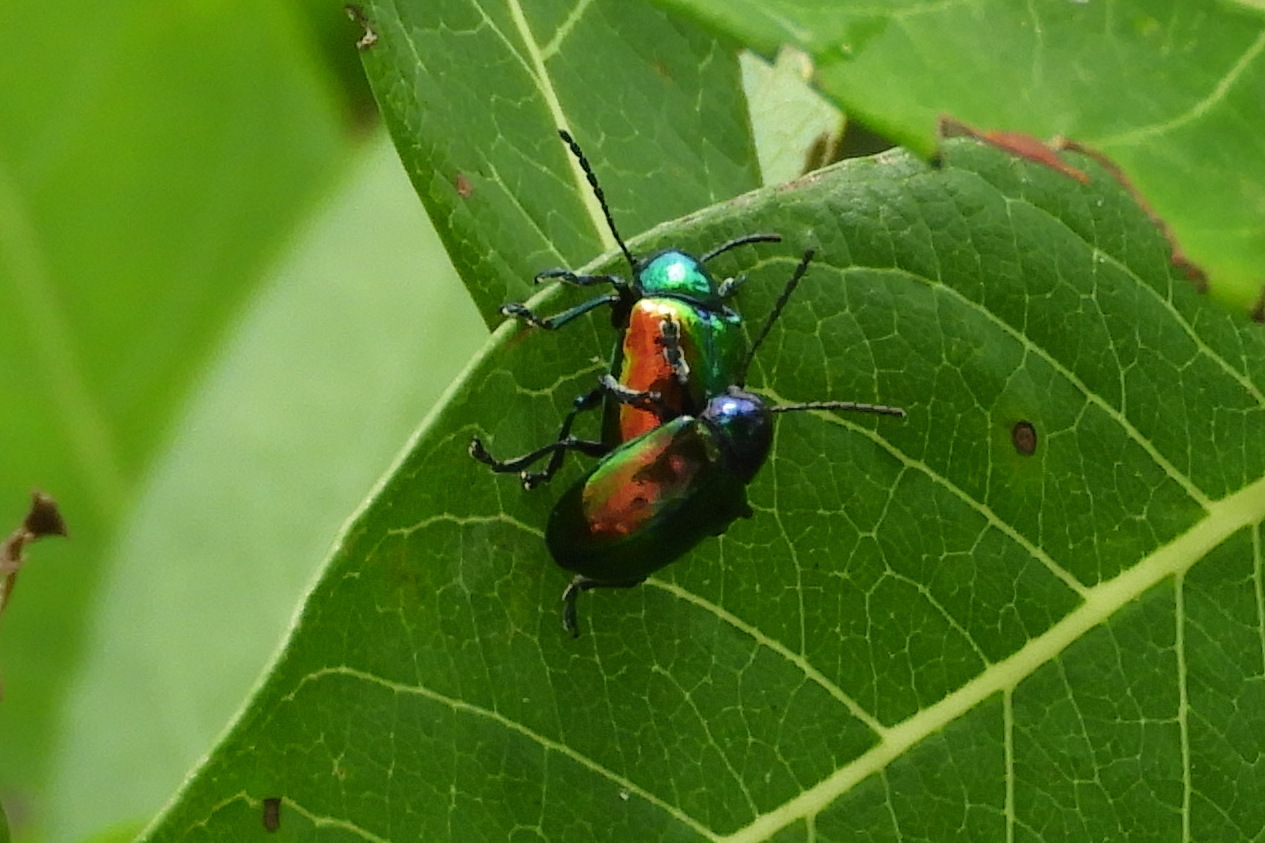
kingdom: Animalia
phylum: Arthropoda
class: Insecta
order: Coleoptera
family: Chrysomelidae
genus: Chrysochus
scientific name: Chrysochus auratus
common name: Dogbane leaf beetle
